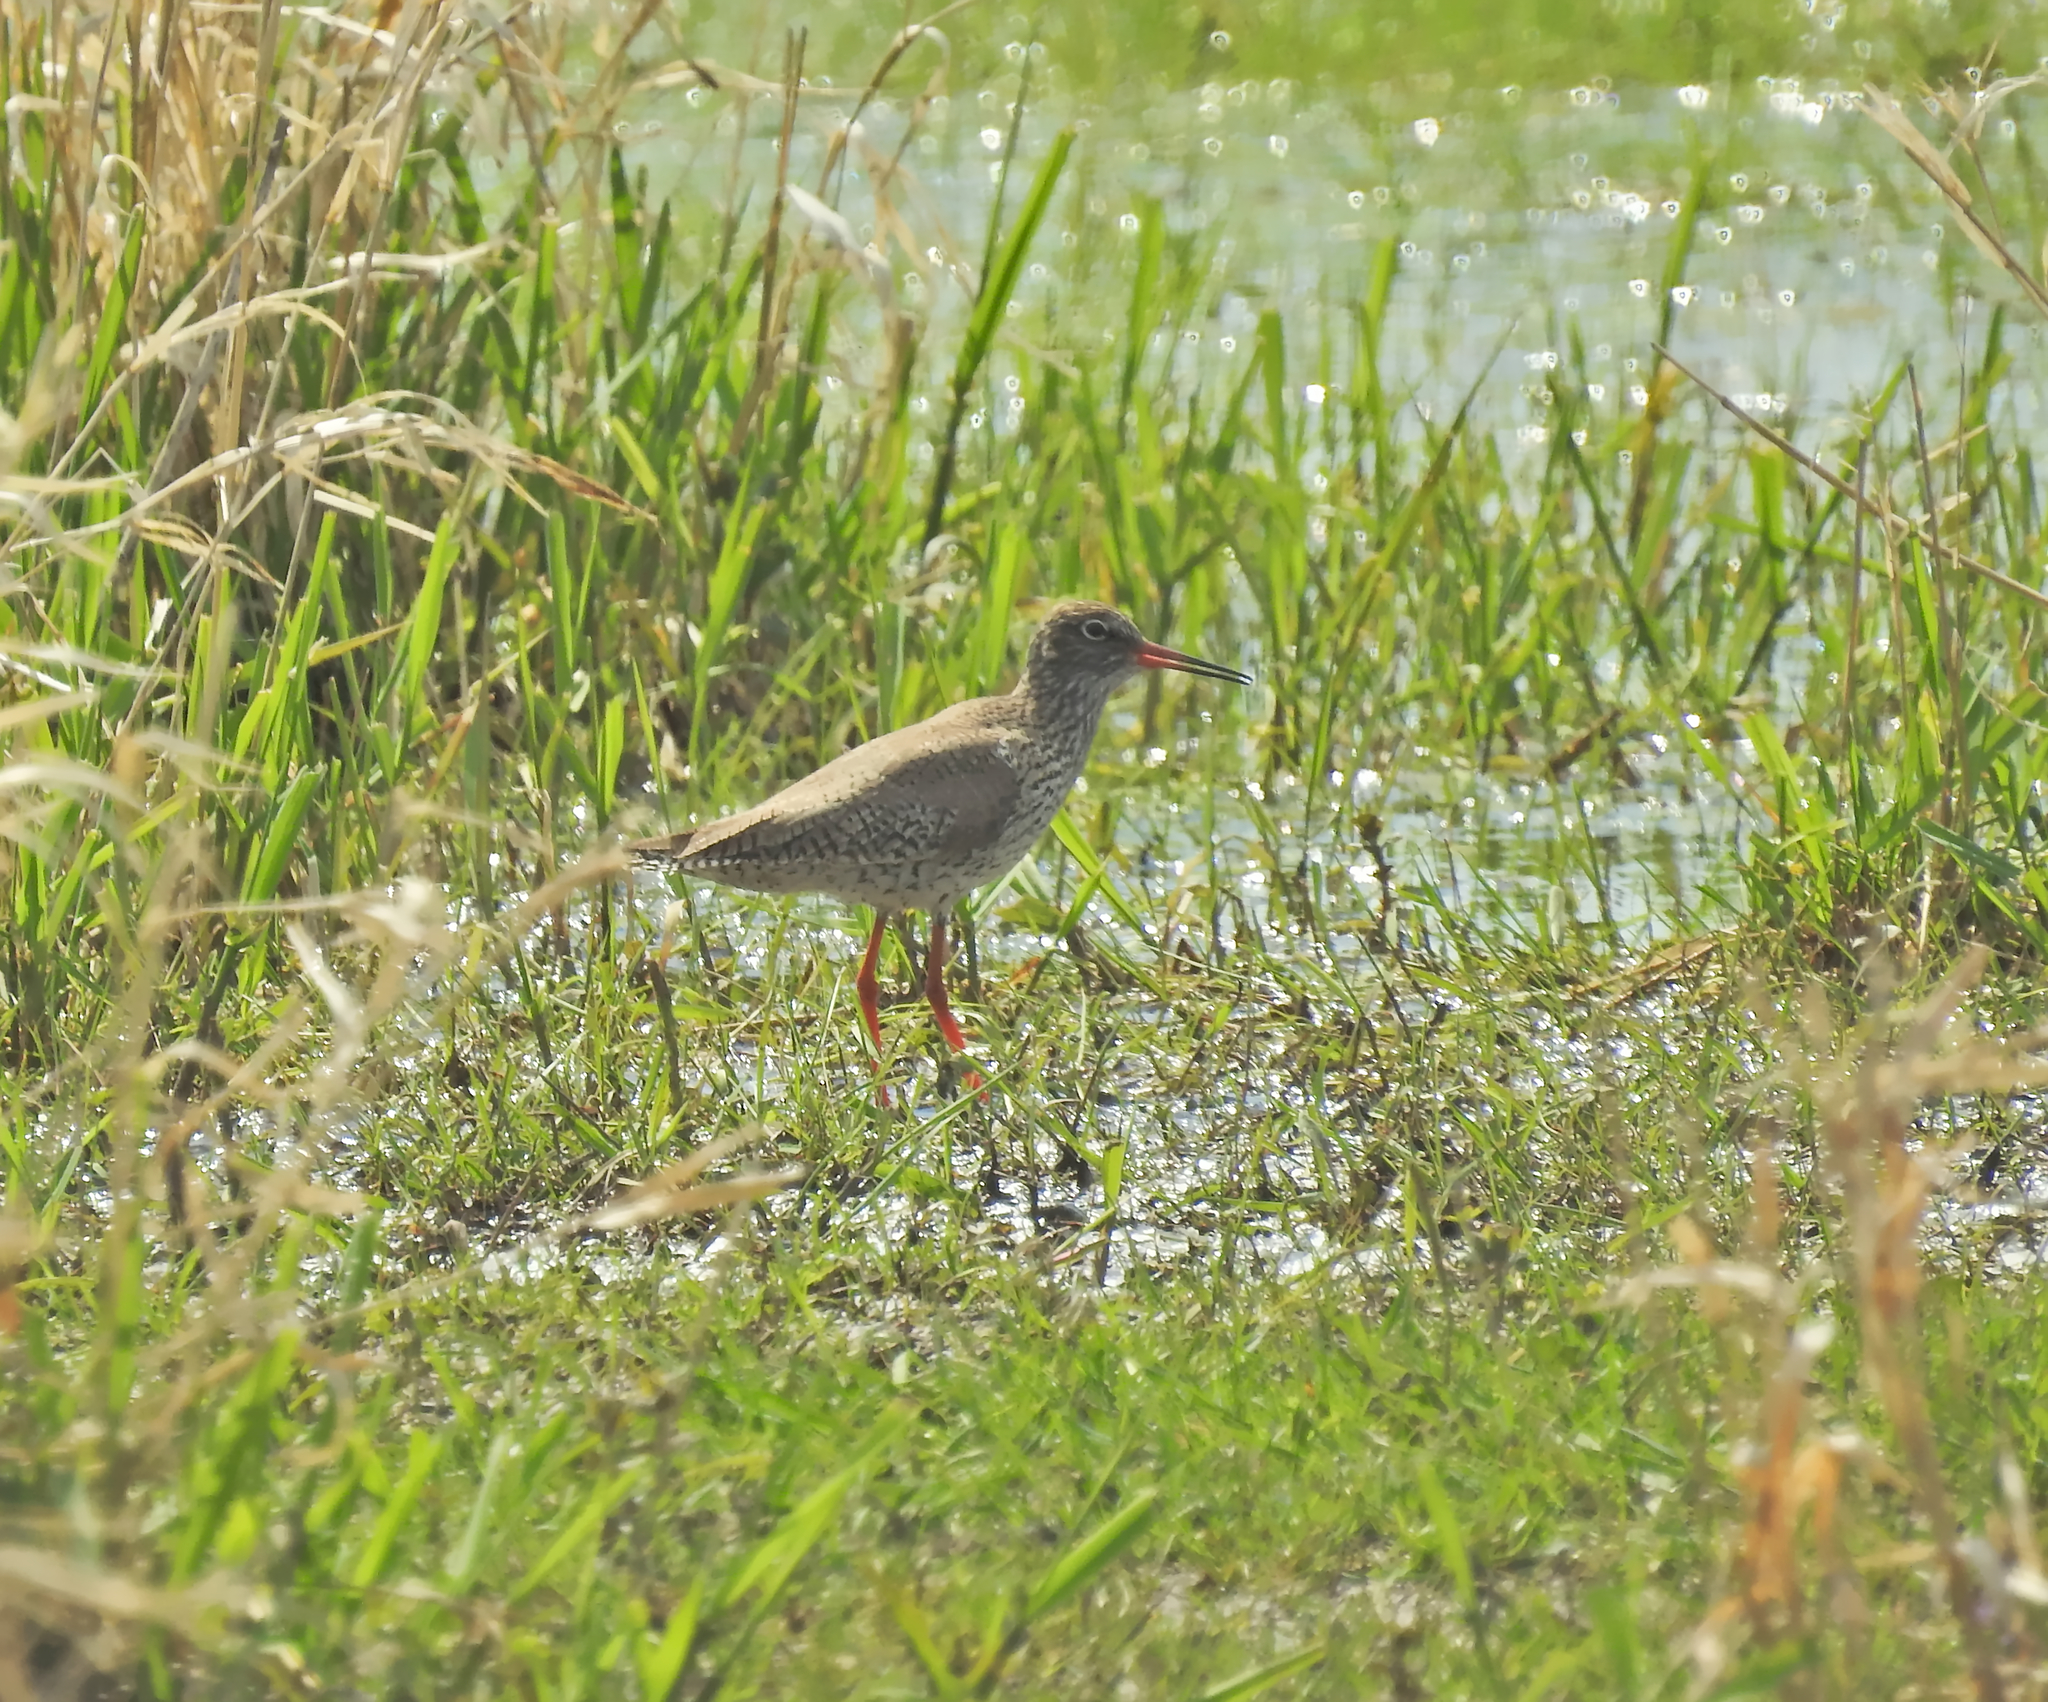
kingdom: Animalia
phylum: Chordata
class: Aves
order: Charadriiformes
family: Scolopacidae
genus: Tringa
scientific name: Tringa totanus
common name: Common redshank
